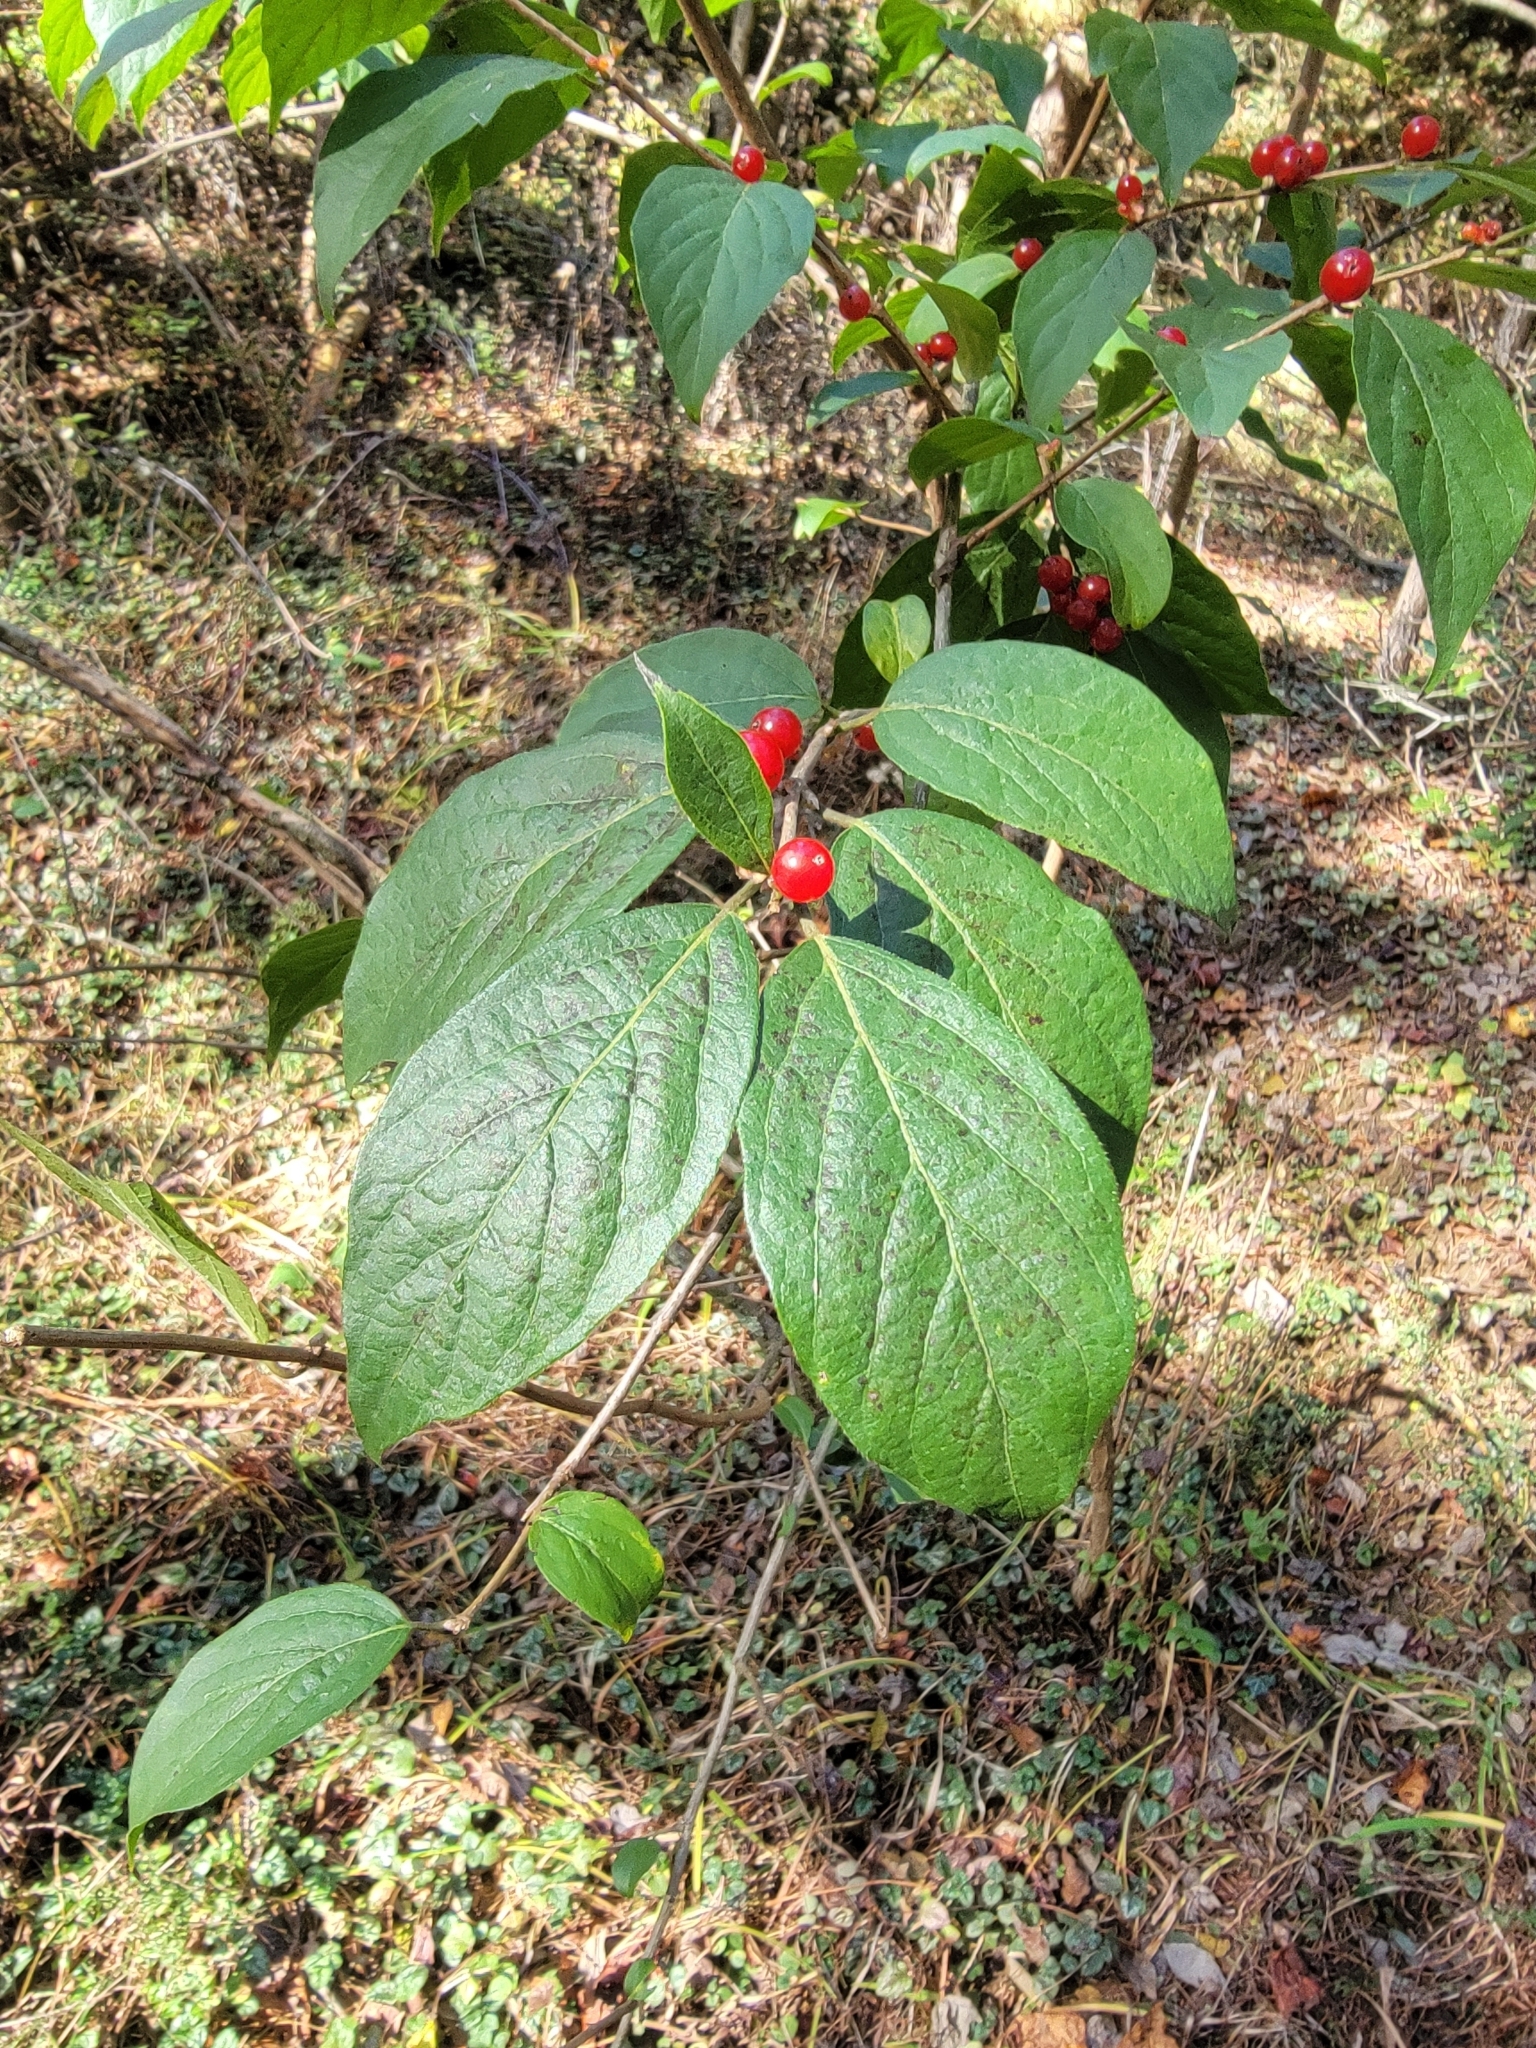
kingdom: Plantae
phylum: Tracheophyta
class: Magnoliopsida
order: Dipsacales
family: Caprifoliaceae
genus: Lonicera
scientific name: Lonicera maackii
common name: Amur honeysuckle
